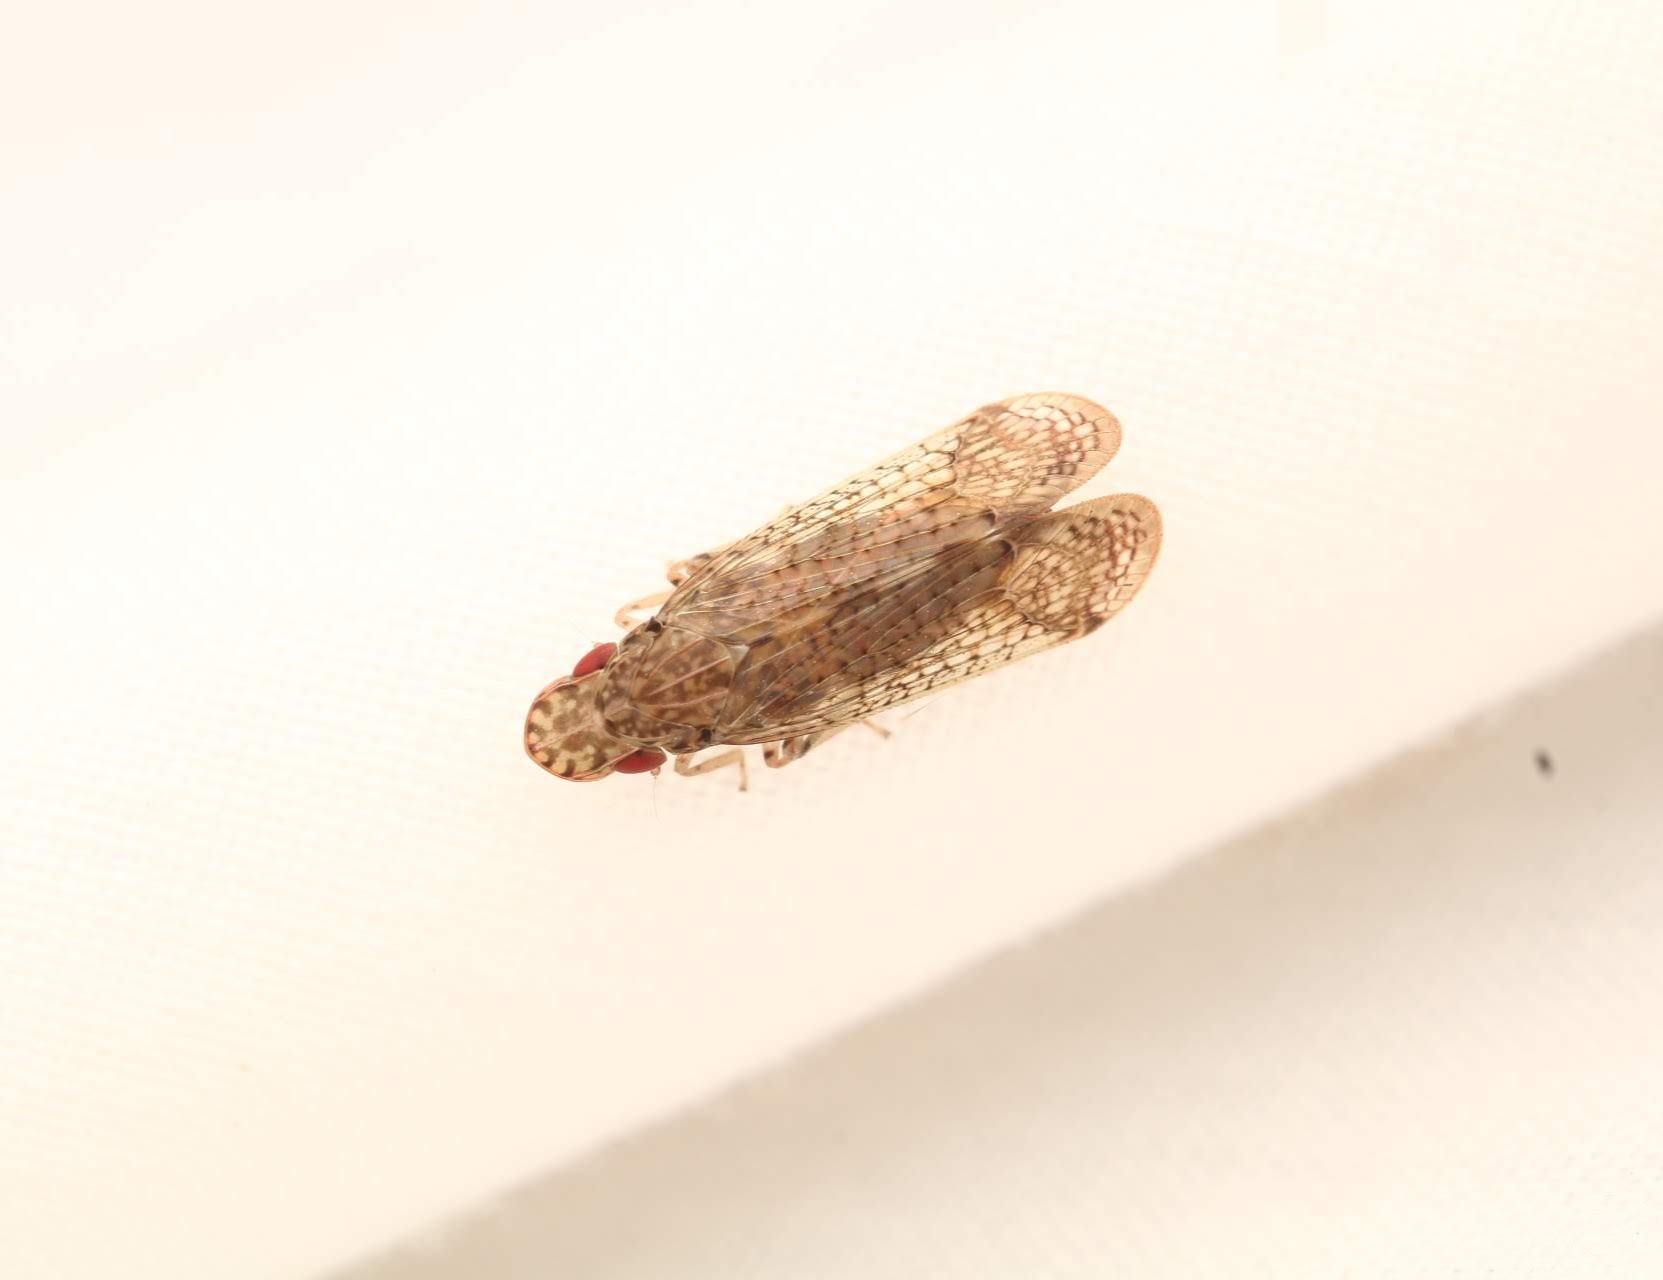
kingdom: Animalia
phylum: Arthropoda
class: Insecta
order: Hemiptera
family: Tropiduchidae
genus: Pelitropis
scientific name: Pelitropis rotulata
